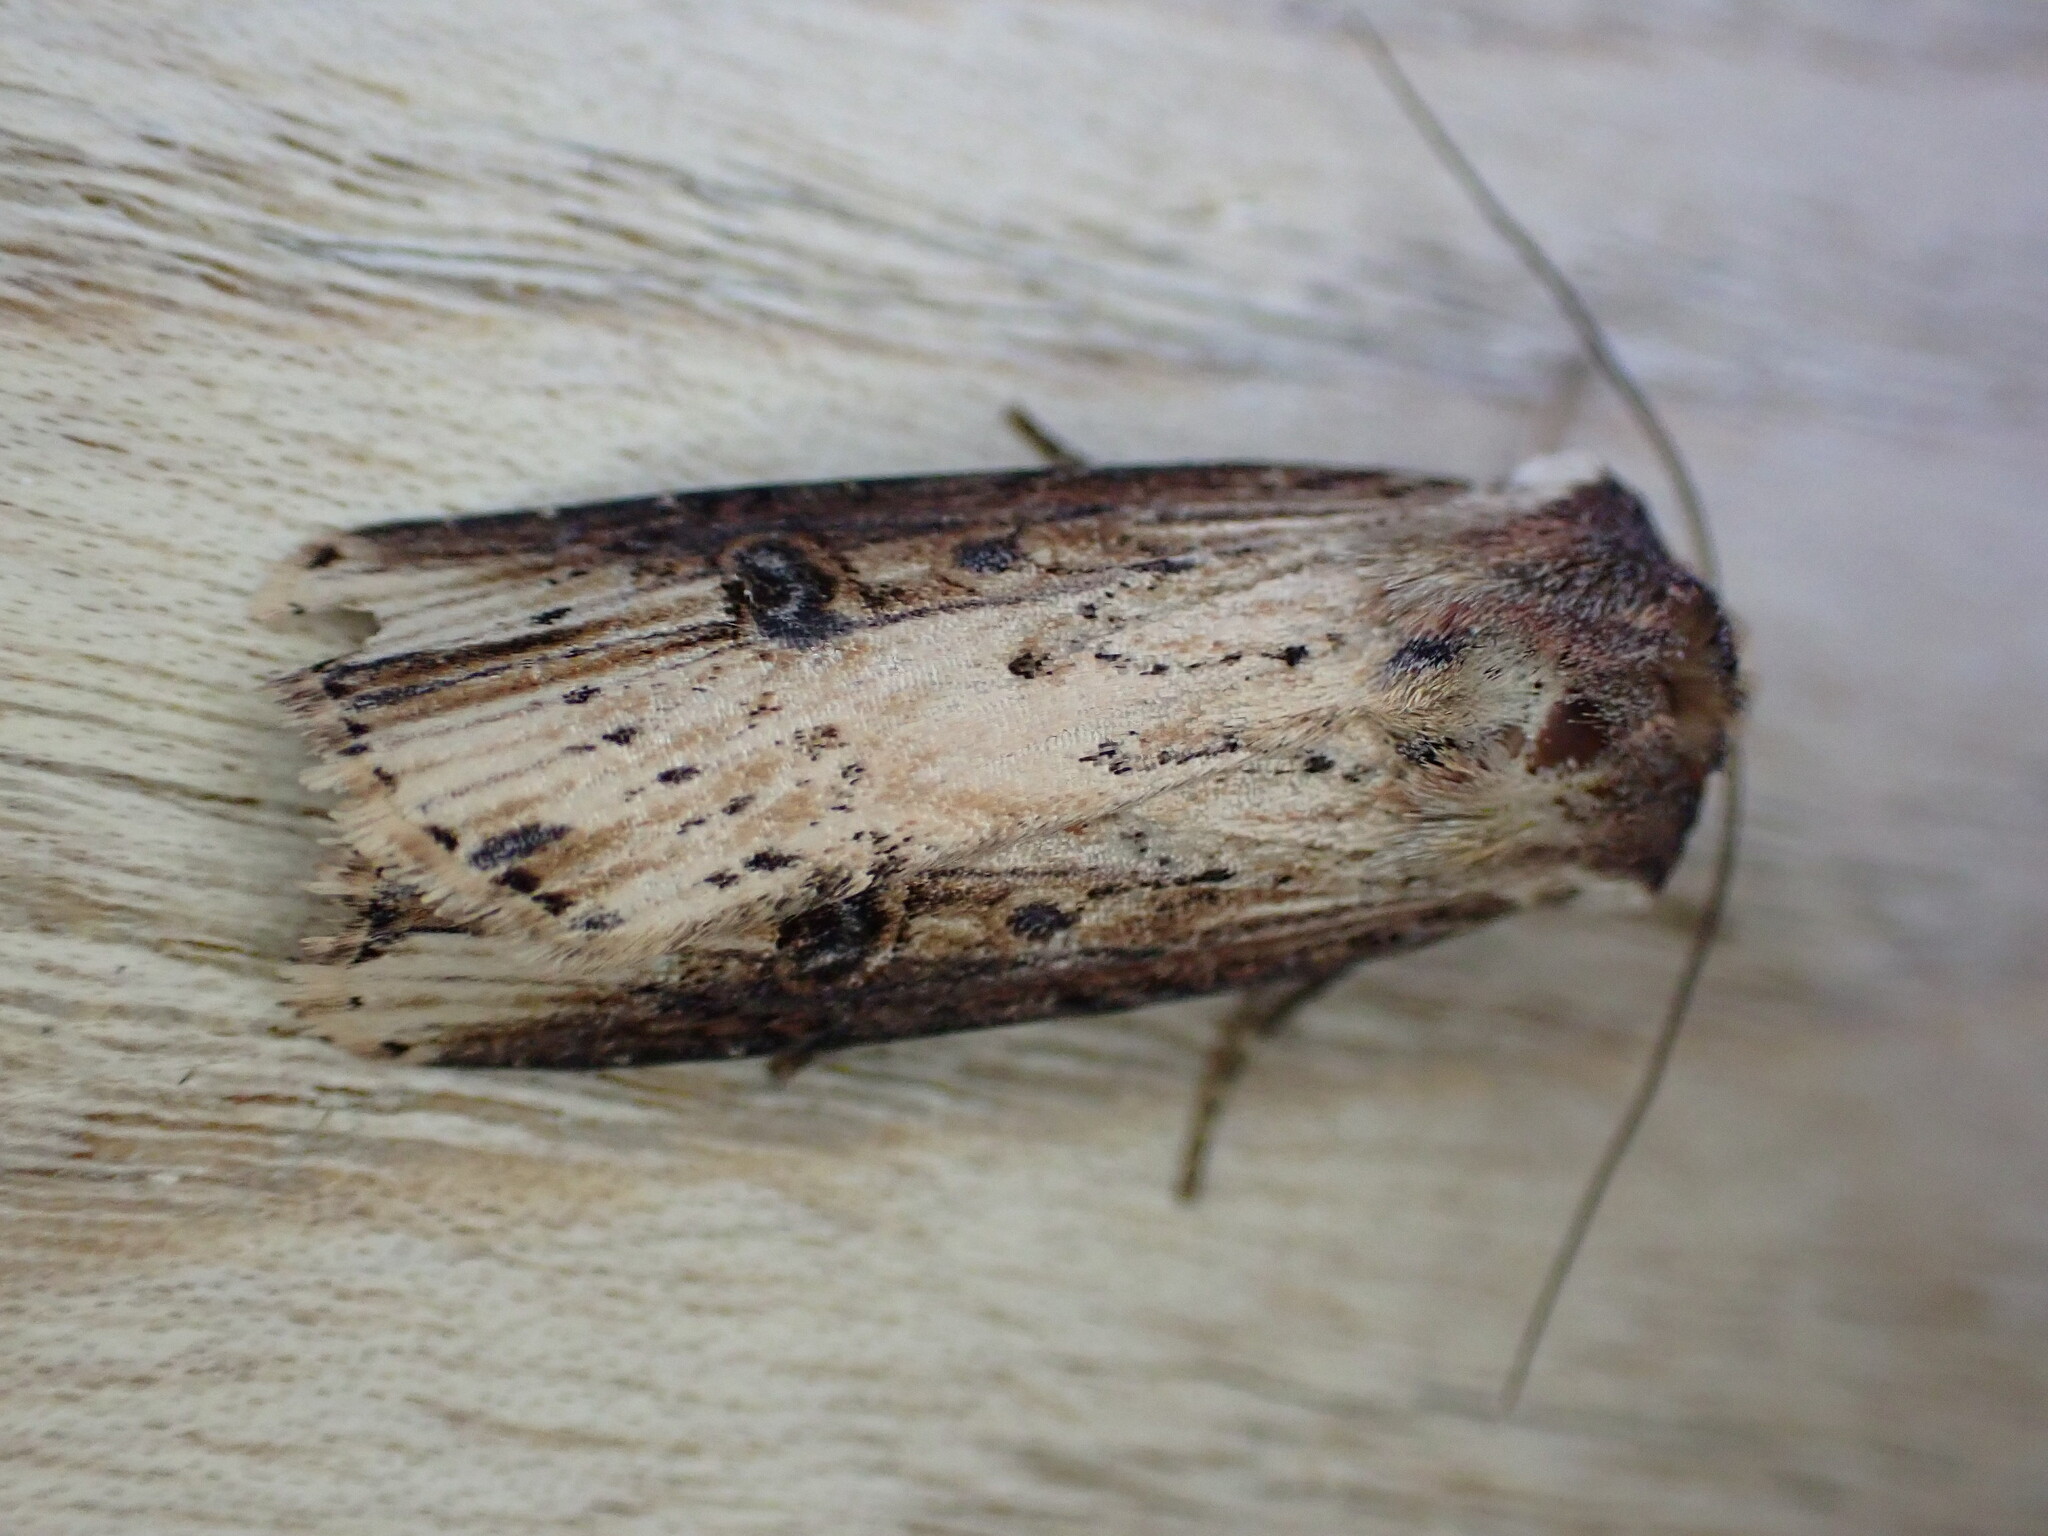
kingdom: Animalia
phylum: Arthropoda
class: Insecta
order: Lepidoptera
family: Noctuidae
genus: Axylia
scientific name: Axylia putris
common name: Flame
